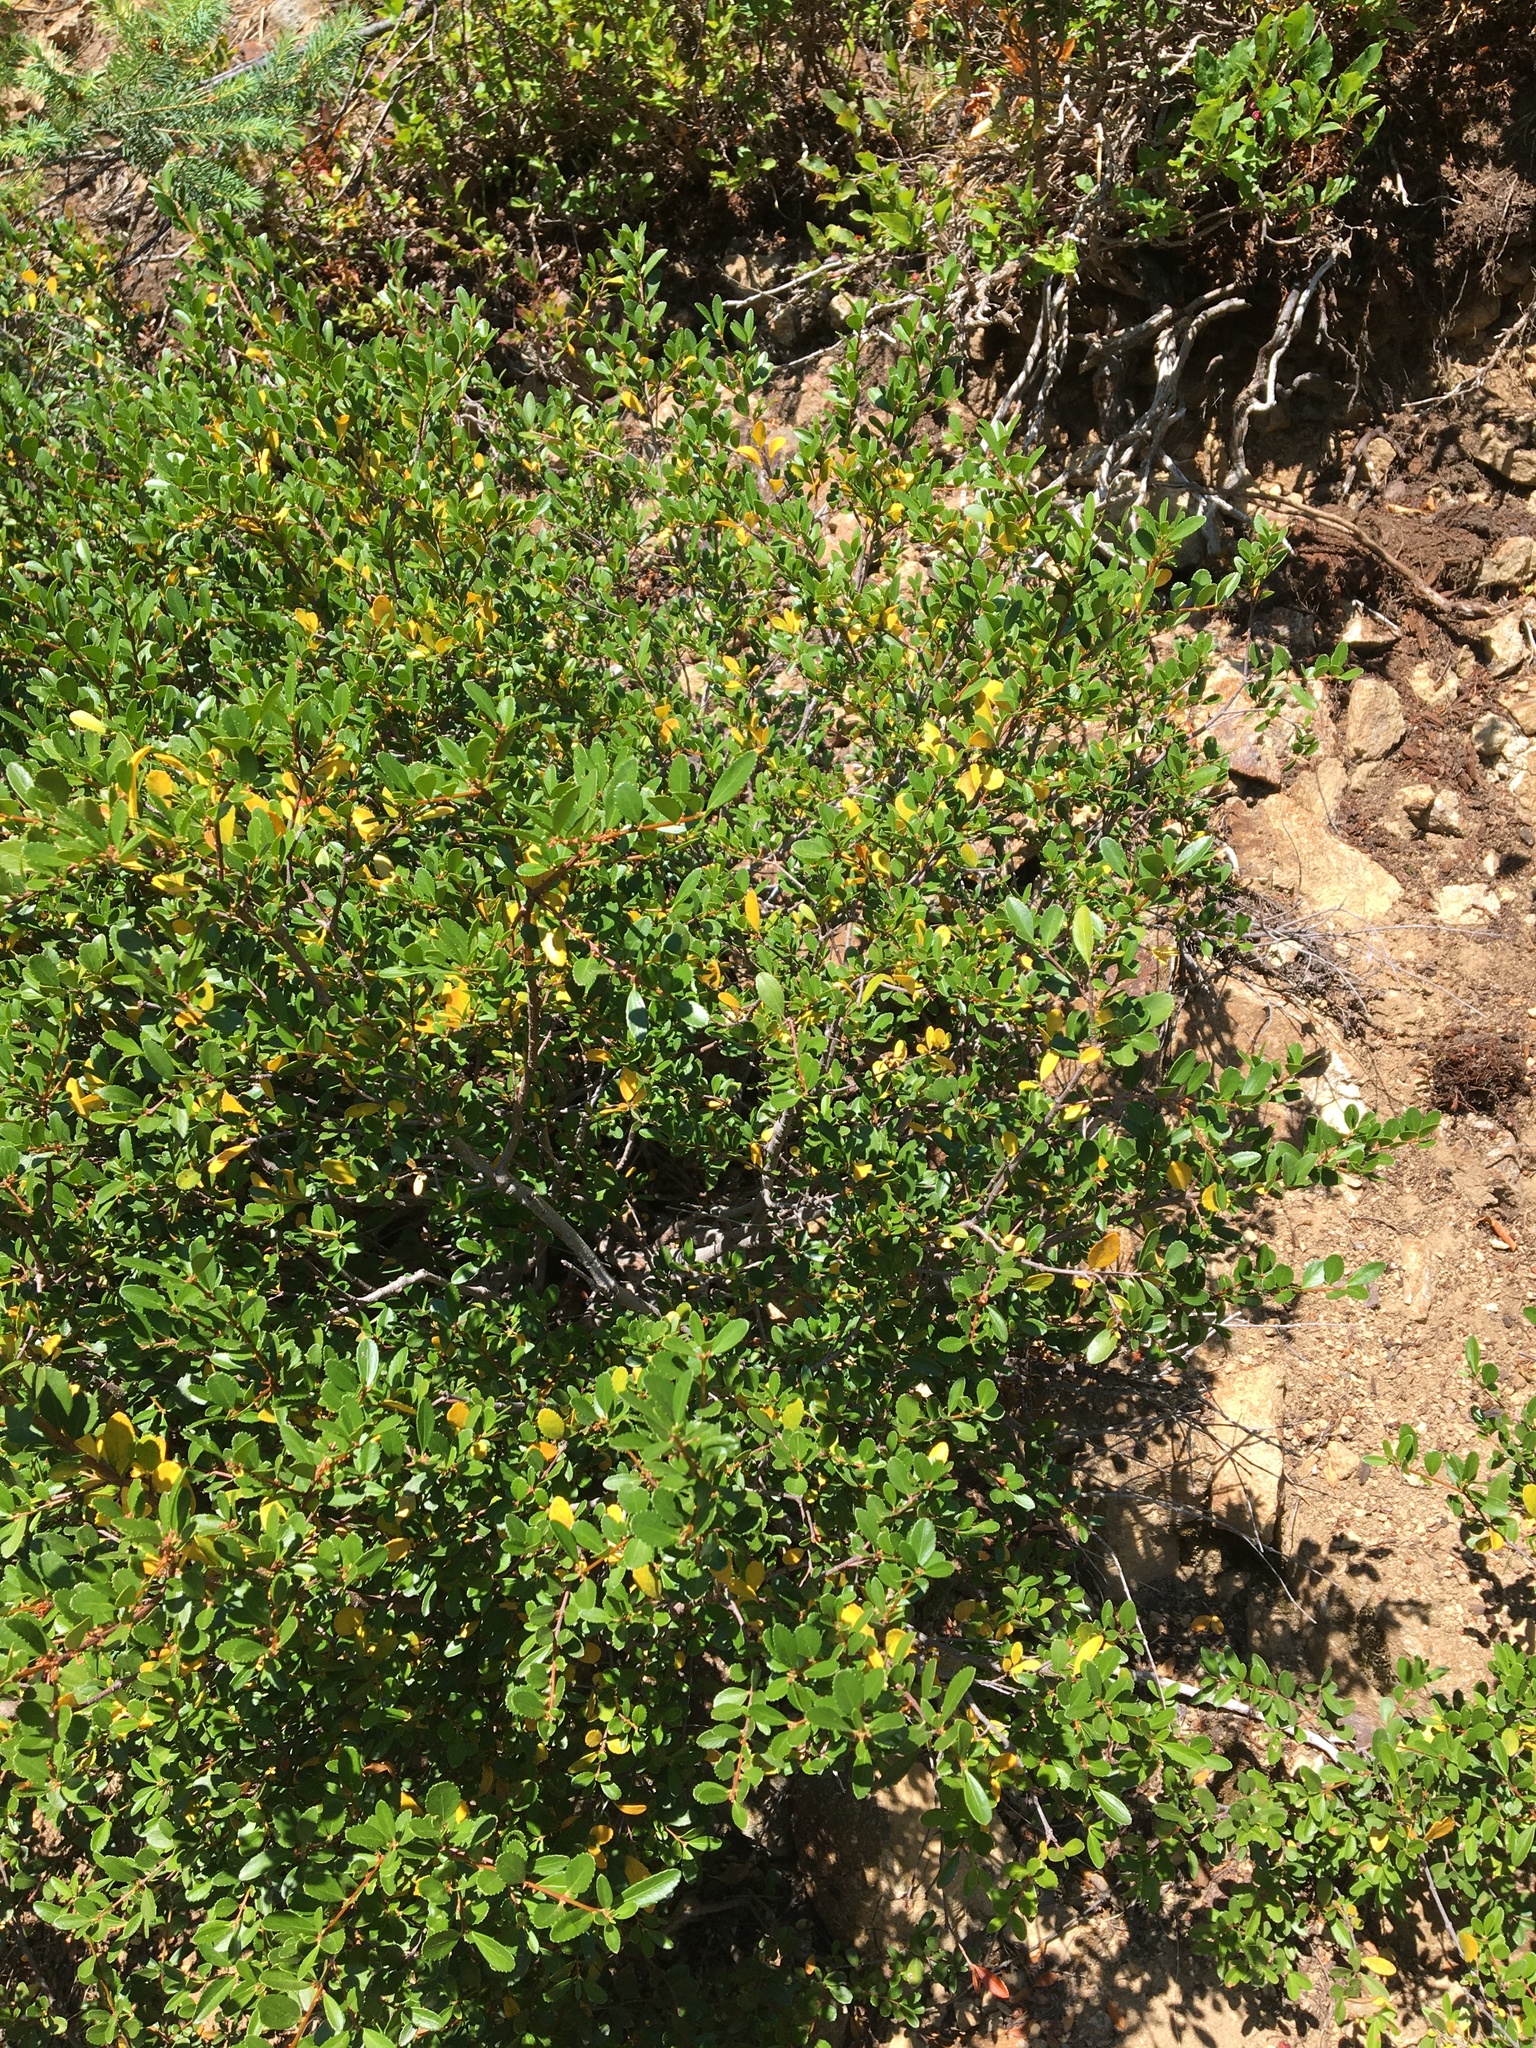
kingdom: Plantae
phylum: Tracheophyta
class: Magnoliopsida
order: Celastrales
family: Celastraceae
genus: Paxistima
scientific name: Paxistima myrsinites
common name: Mountain-lover
